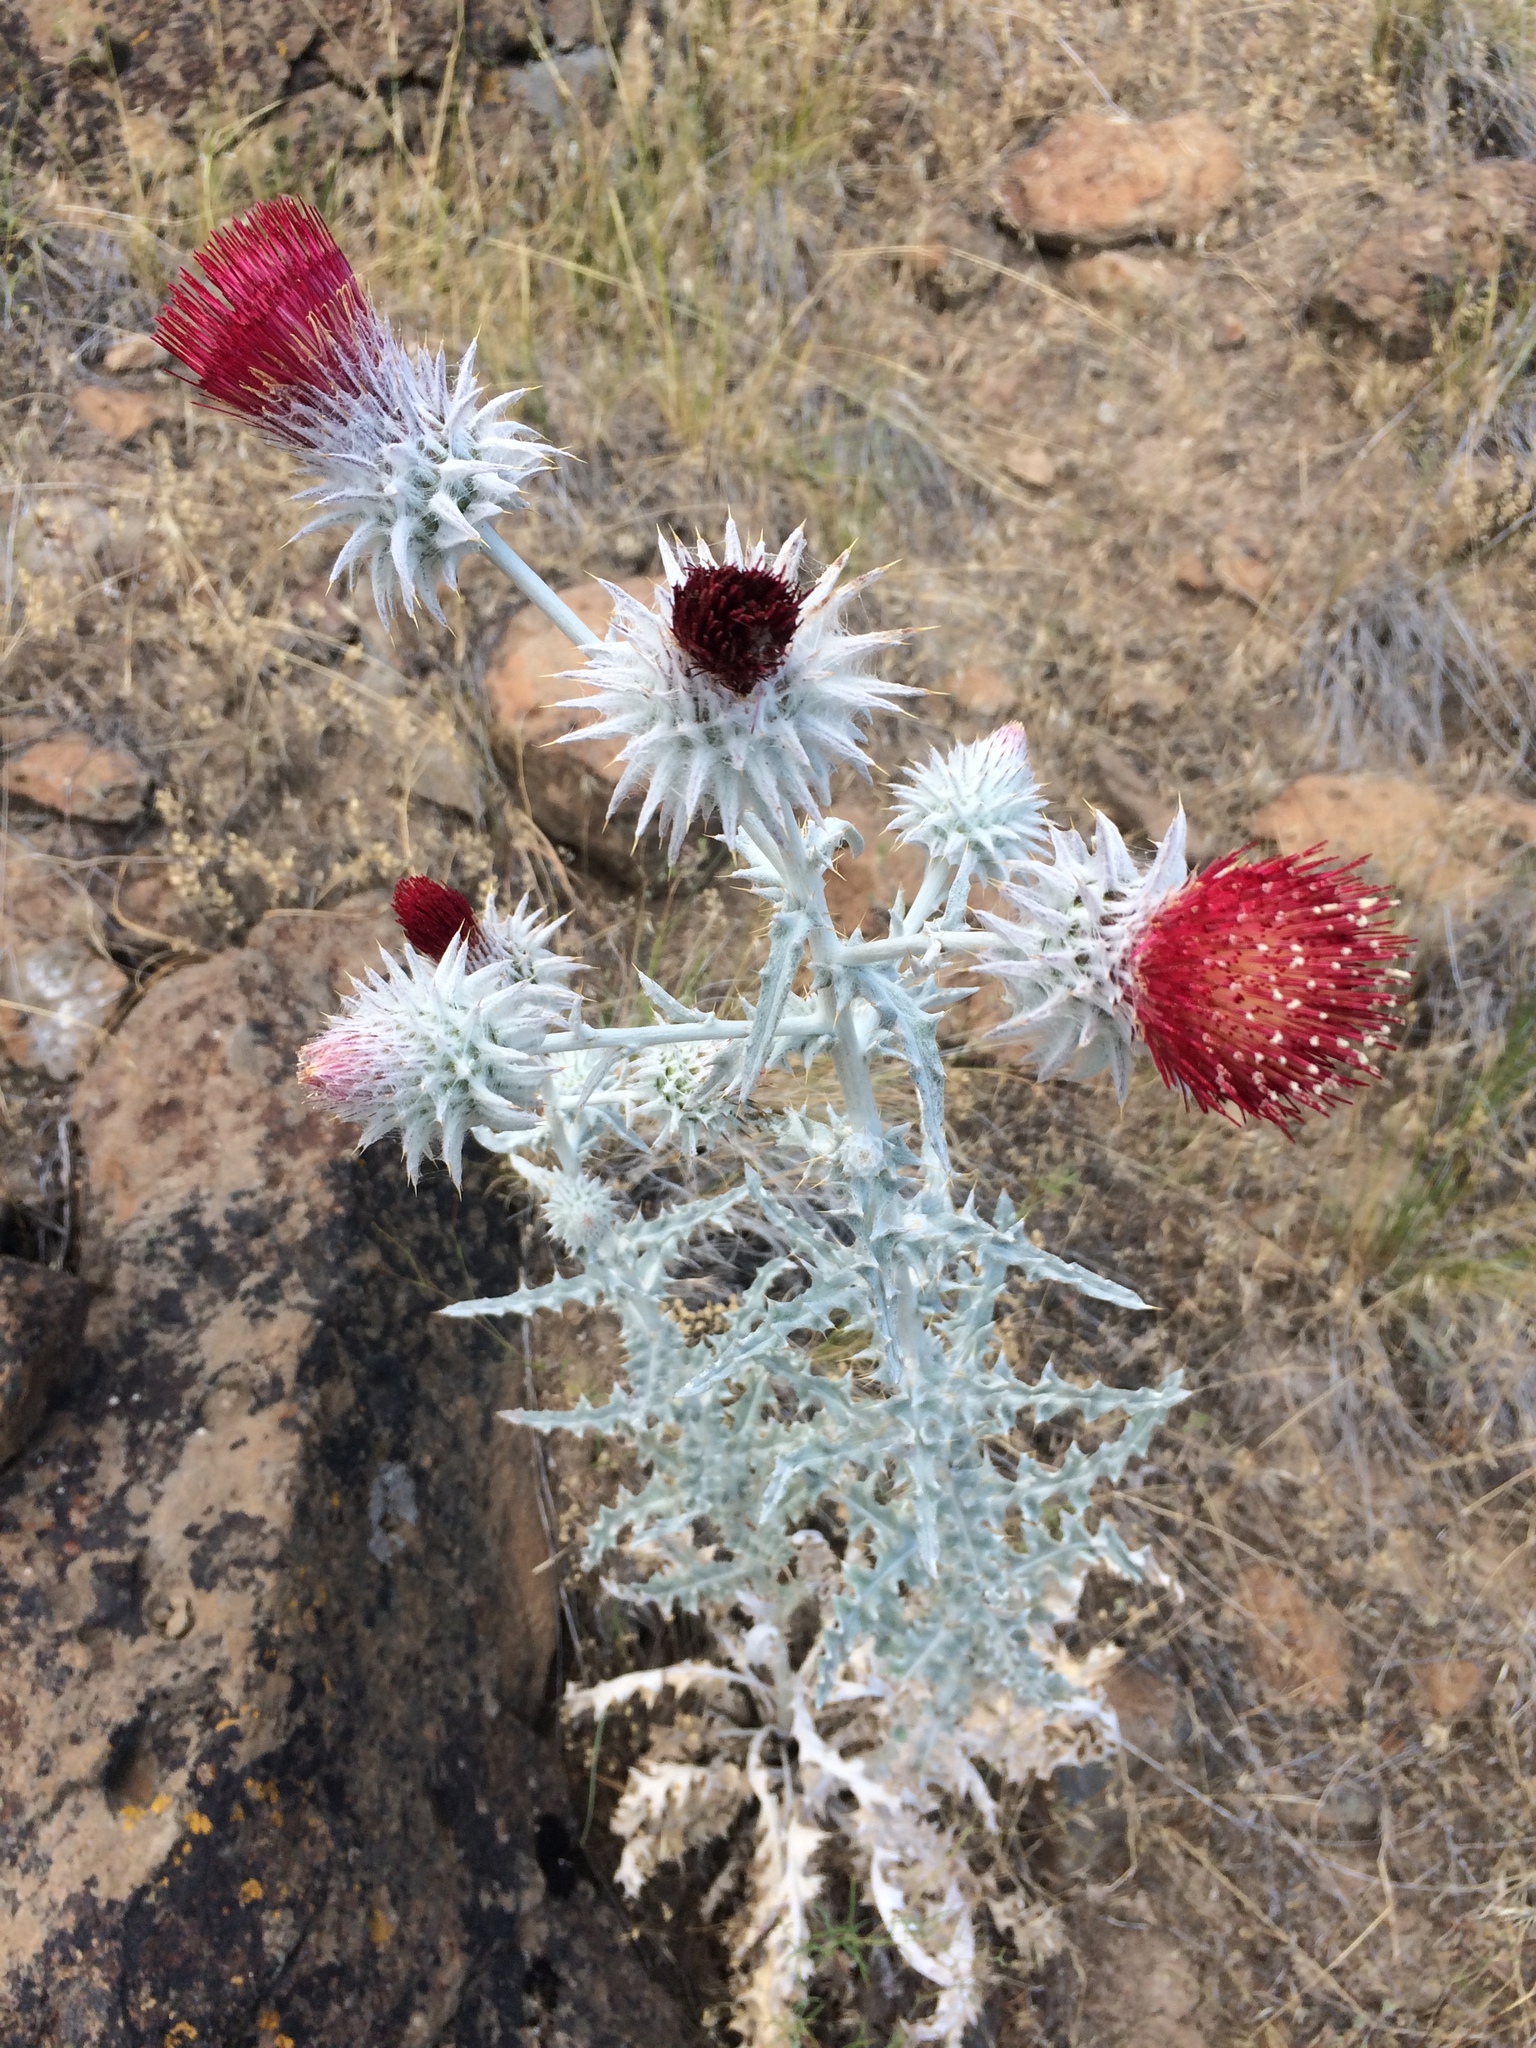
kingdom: Plantae
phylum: Tracheophyta
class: Magnoliopsida
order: Asterales
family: Asteraceae
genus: Cirsium
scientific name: Cirsium occidentale
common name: Western thistle
